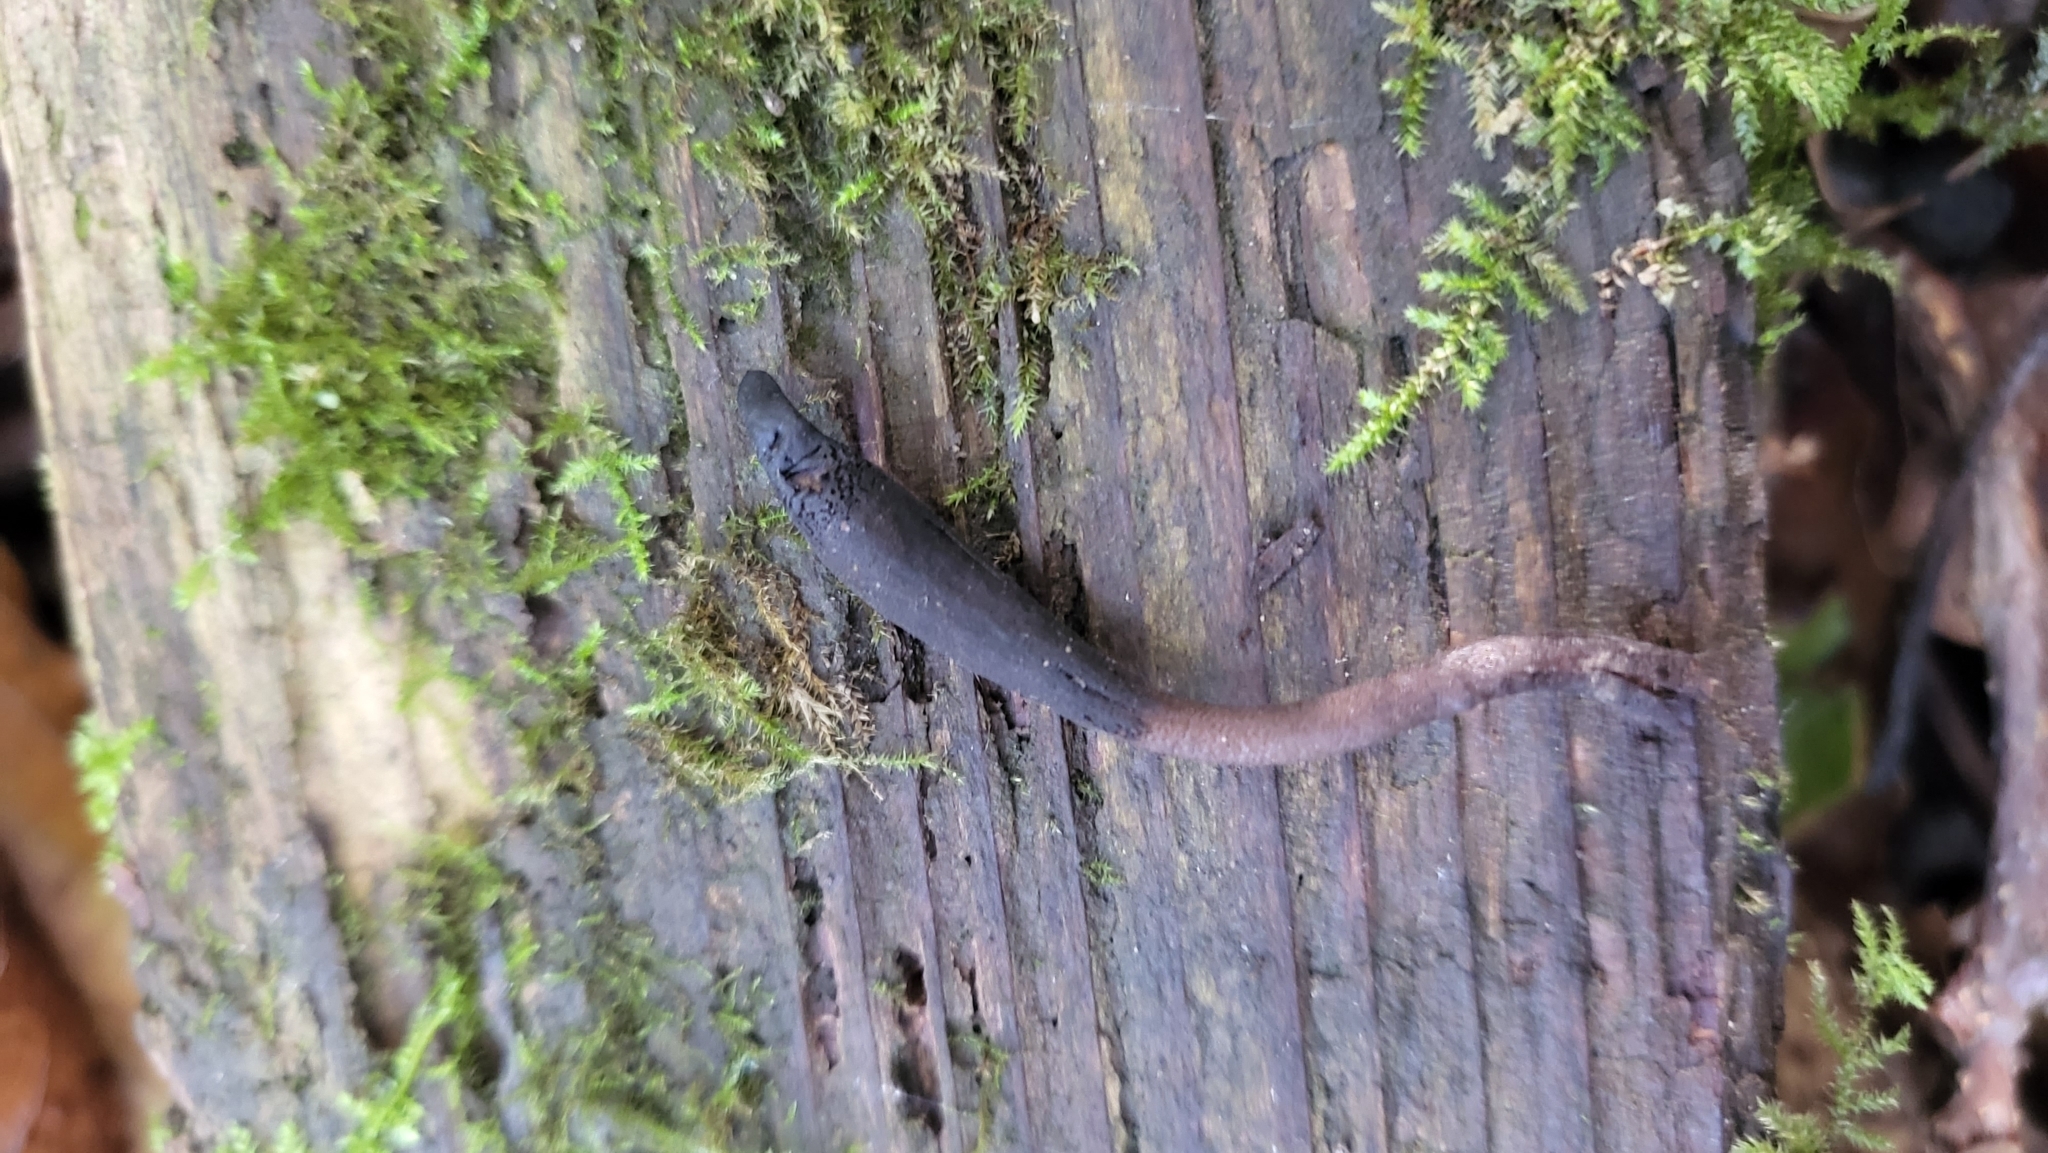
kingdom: Fungi
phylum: Ascomycota
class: Geoglossomycetes
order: Geoglossales
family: Geoglossaceae
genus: Geoglossum
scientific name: Geoglossum
